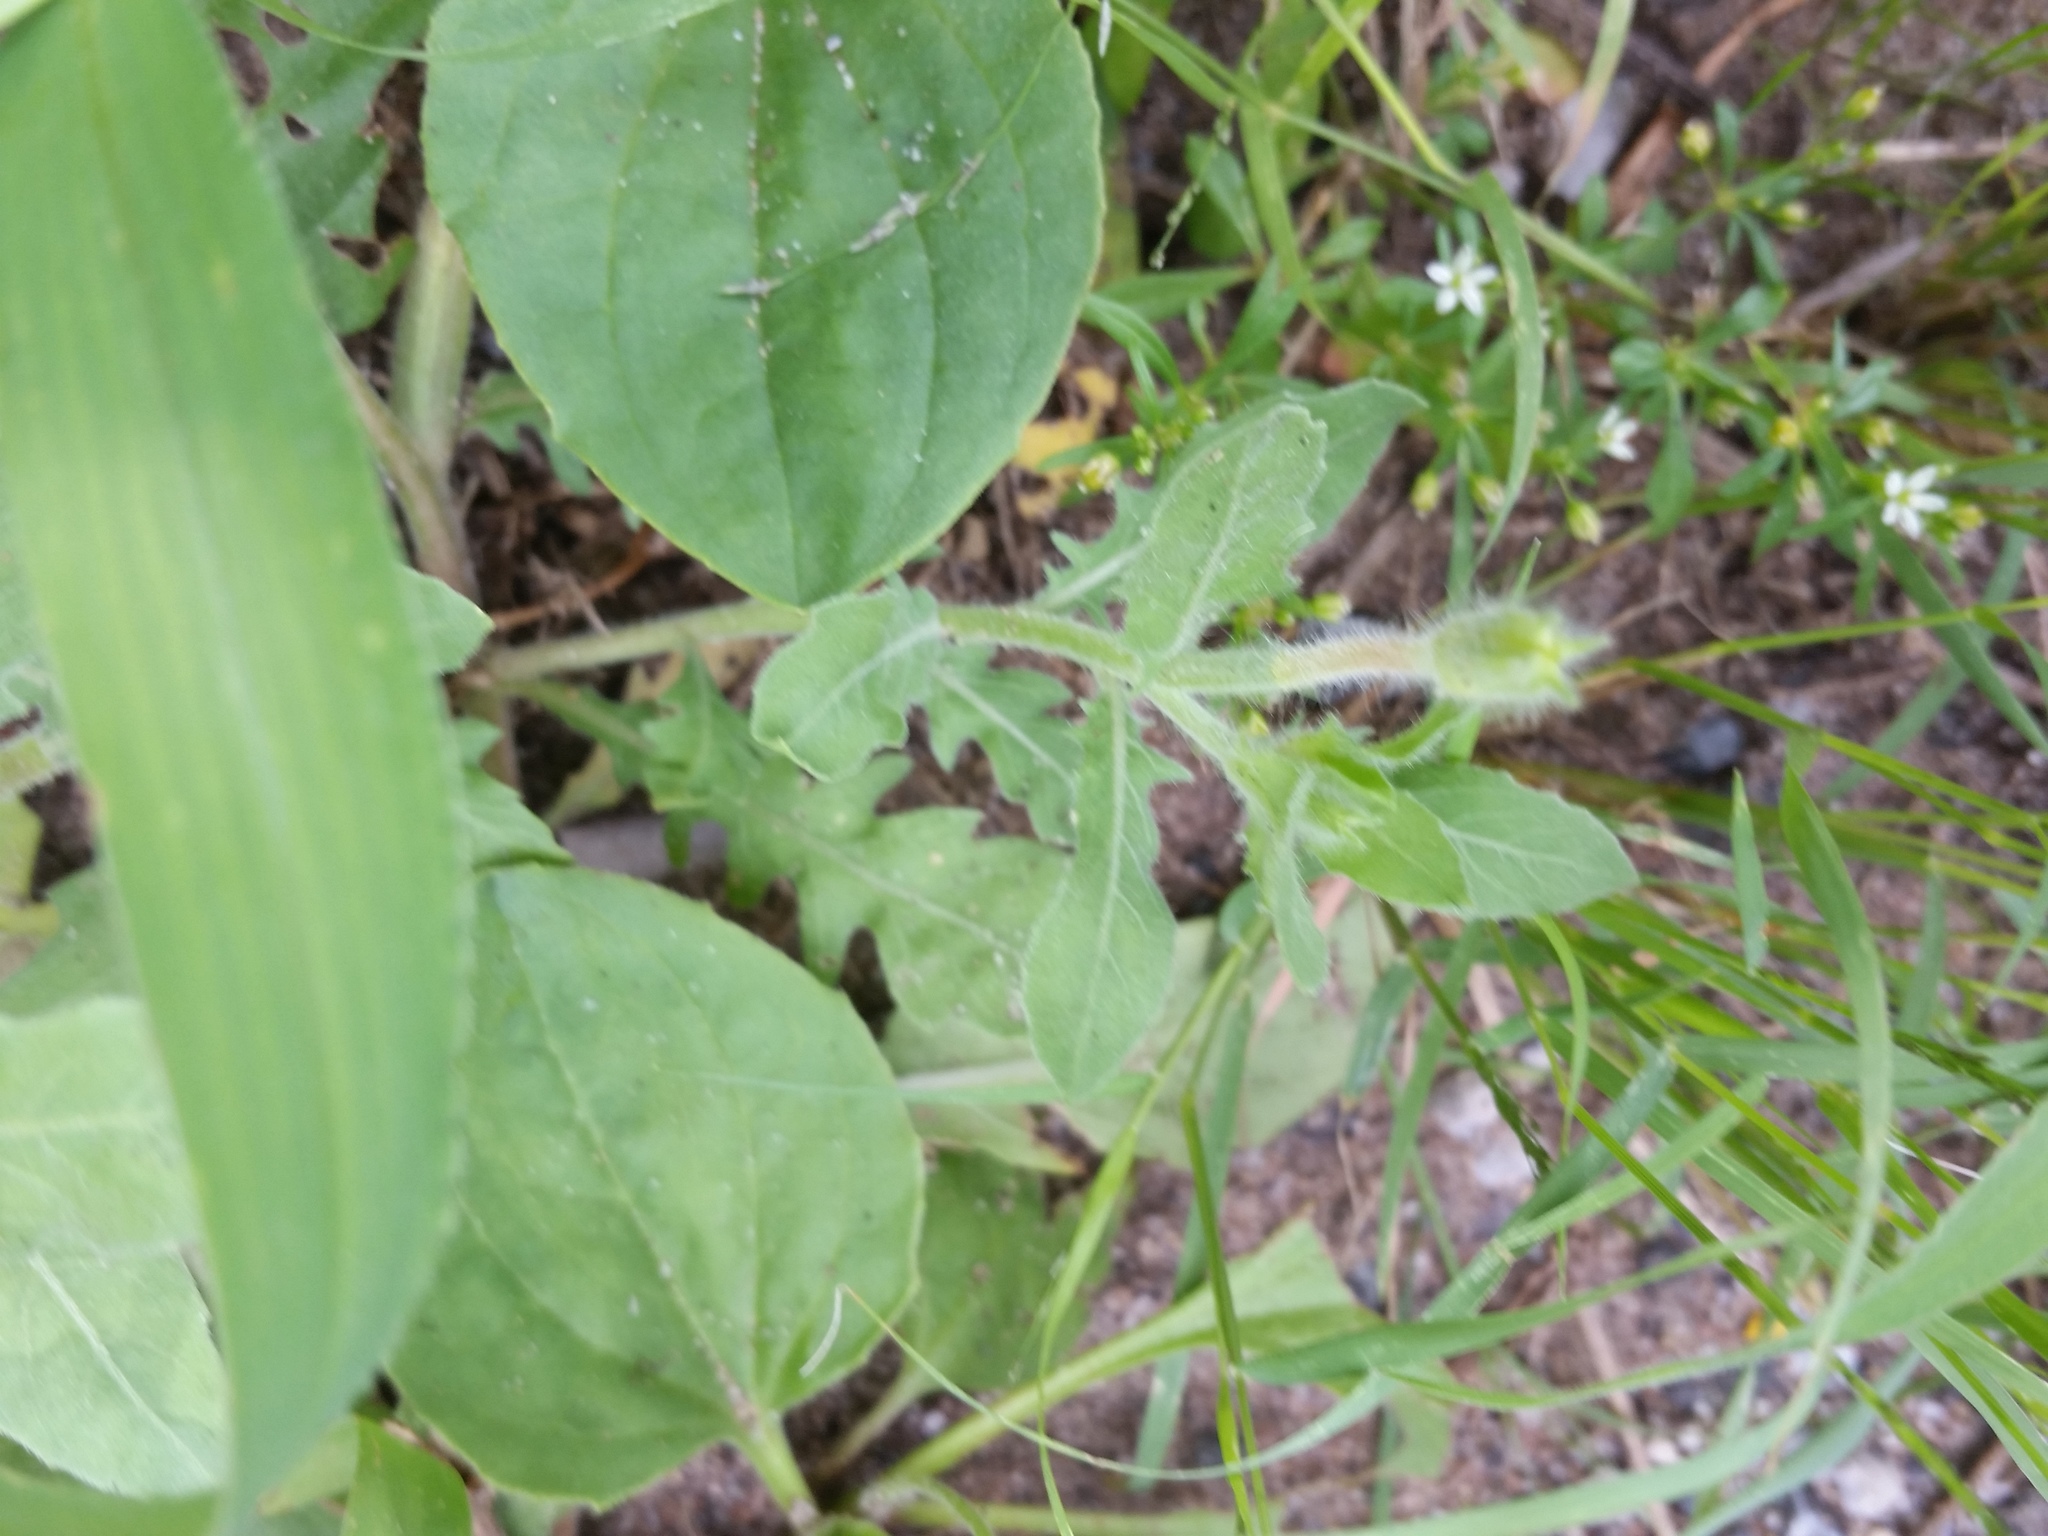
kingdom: Plantae
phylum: Tracheophyta
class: Magnoliopsida
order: Myrtales
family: Onagraceae
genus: Oenothera
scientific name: Oenothera laciniata
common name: Cut-leaved evening-primrose
